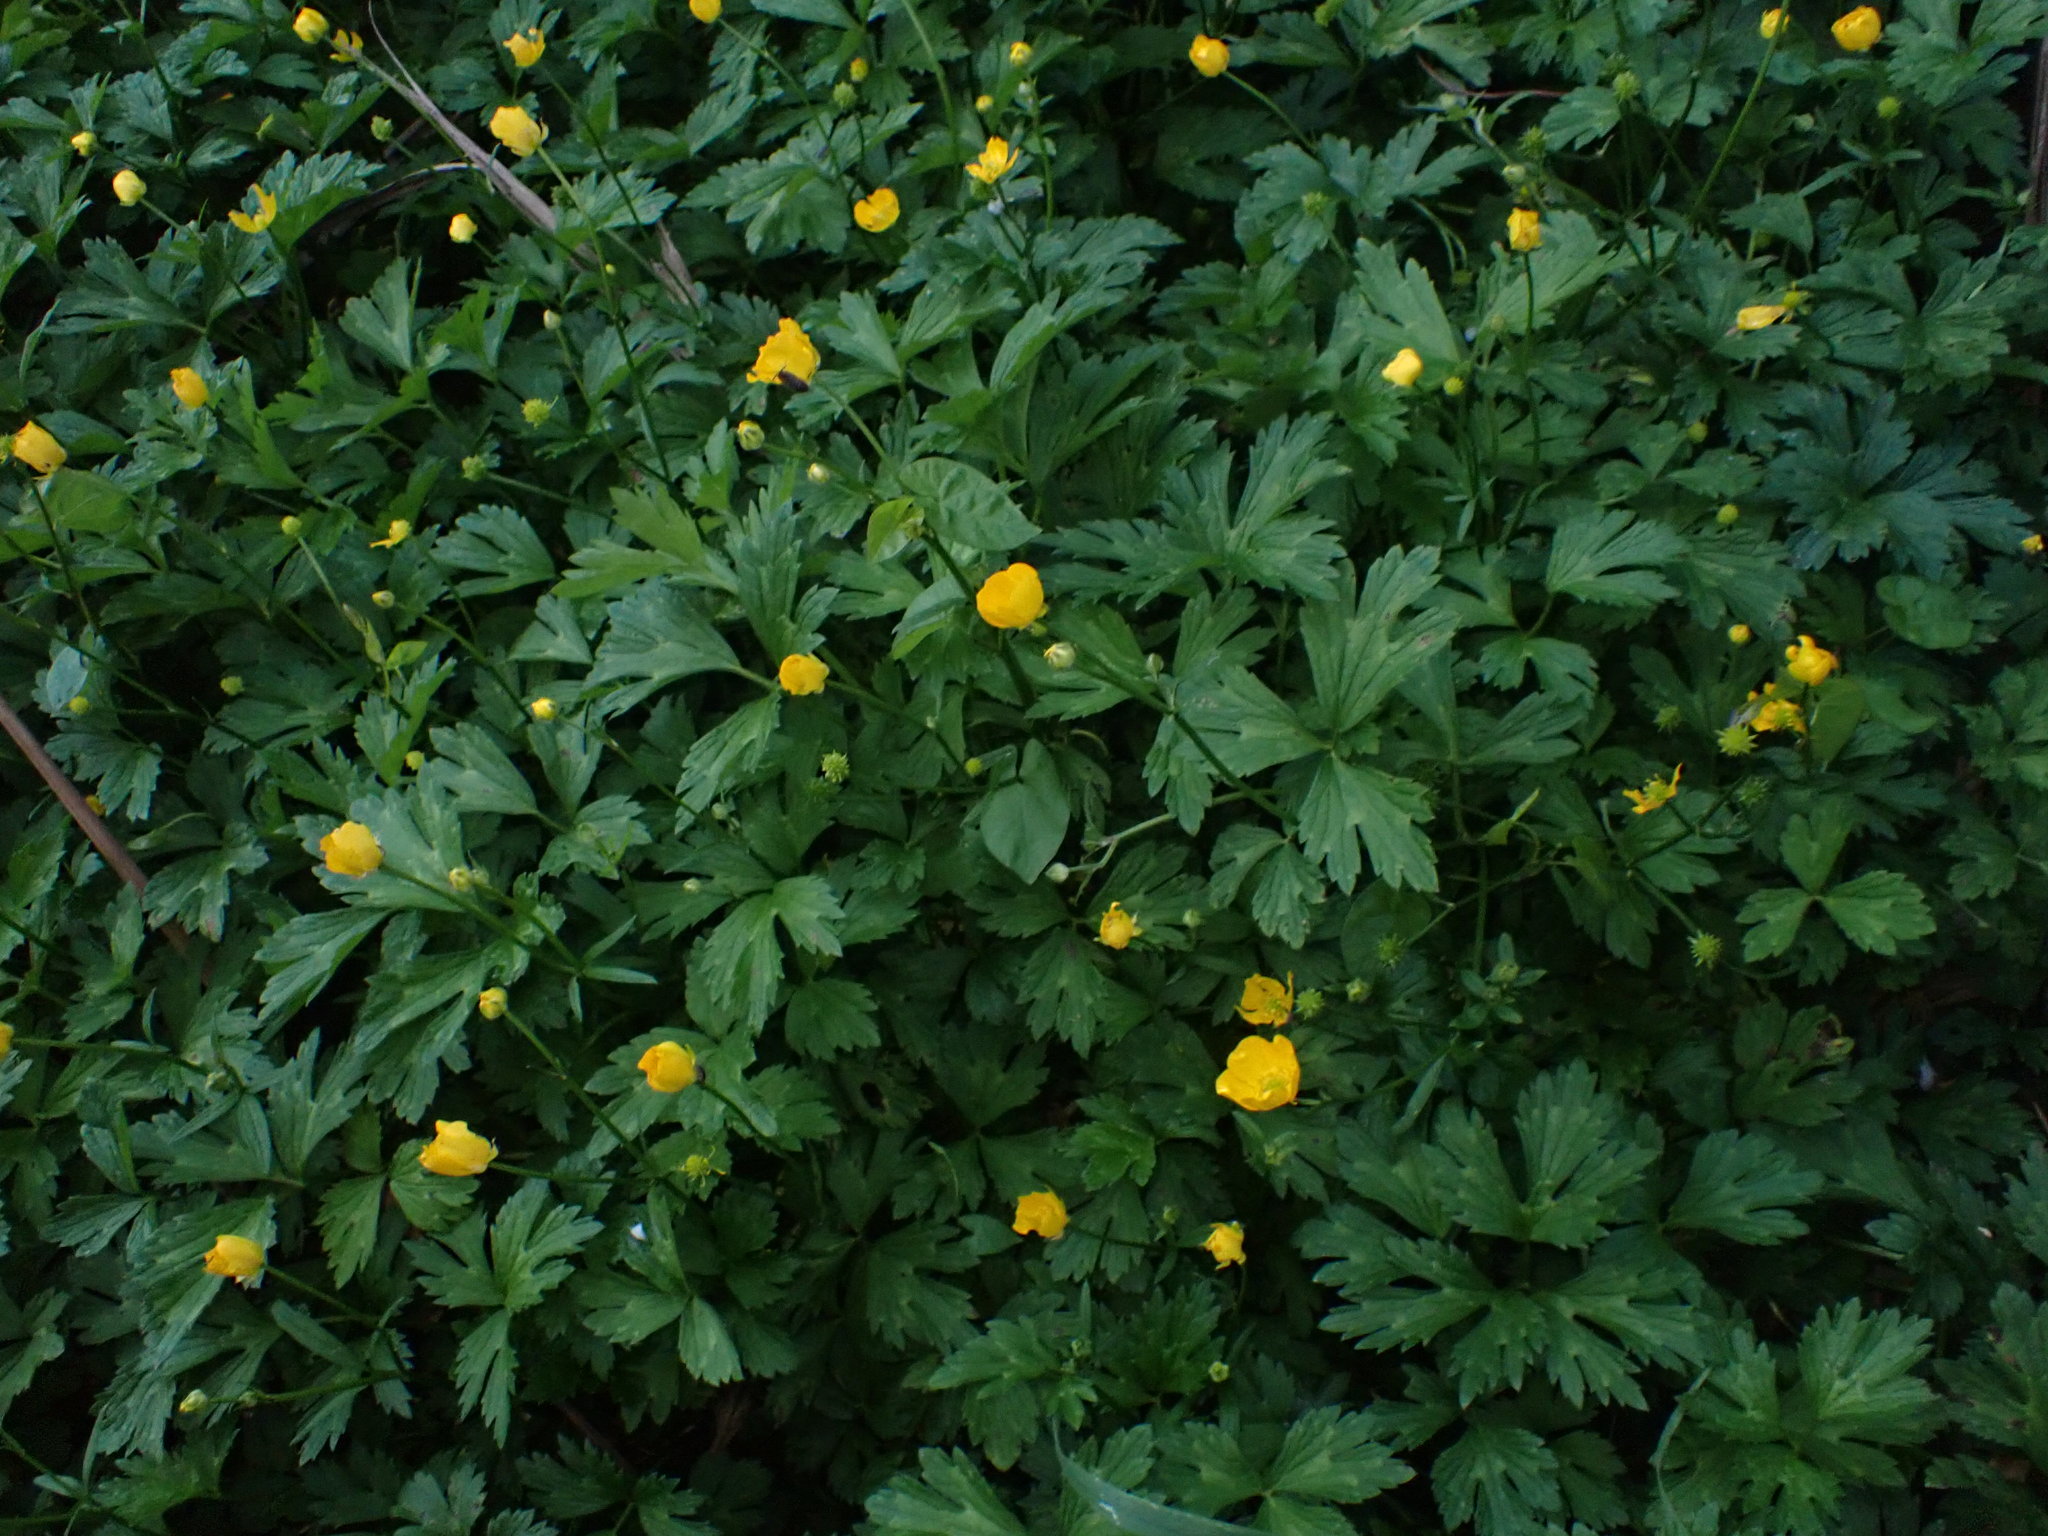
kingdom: Plantae
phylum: Tracheophyta
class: Magnoliopsida
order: Ranunculales
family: Ranunculaceae
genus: Ranunculus
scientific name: Ranunculus repens
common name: Creeping buttercup
